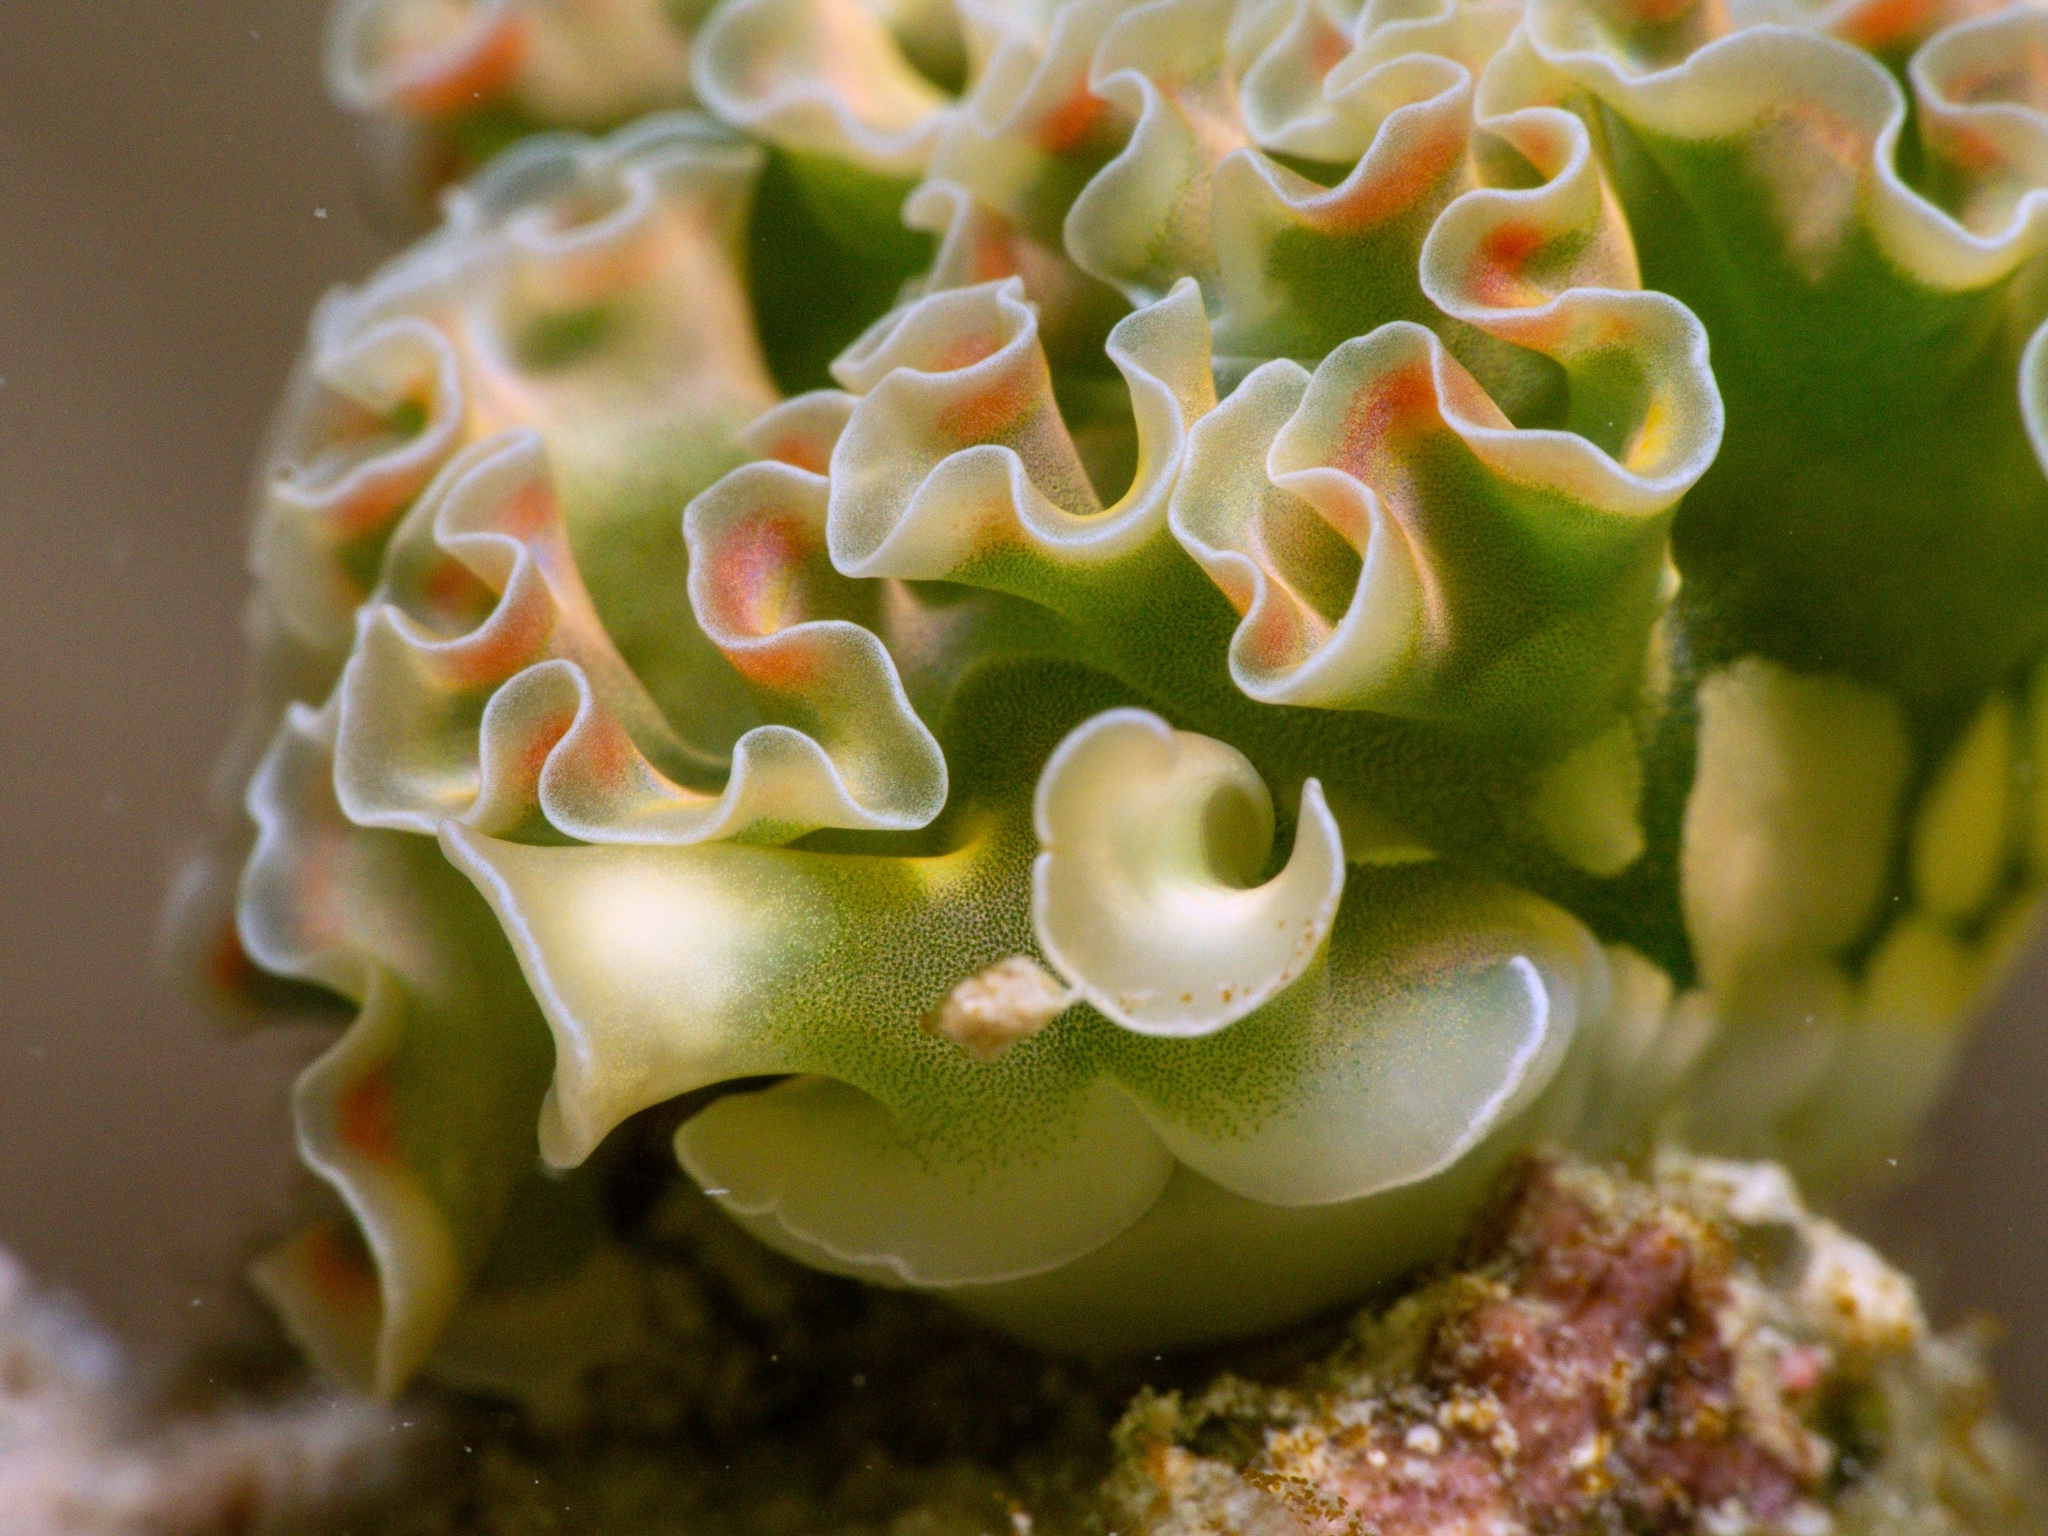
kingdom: Animalia
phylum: Mollusca
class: Gastropoda
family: Plakobranchidae
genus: Elysia
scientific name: Elysia crispata
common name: Lettuce slug
